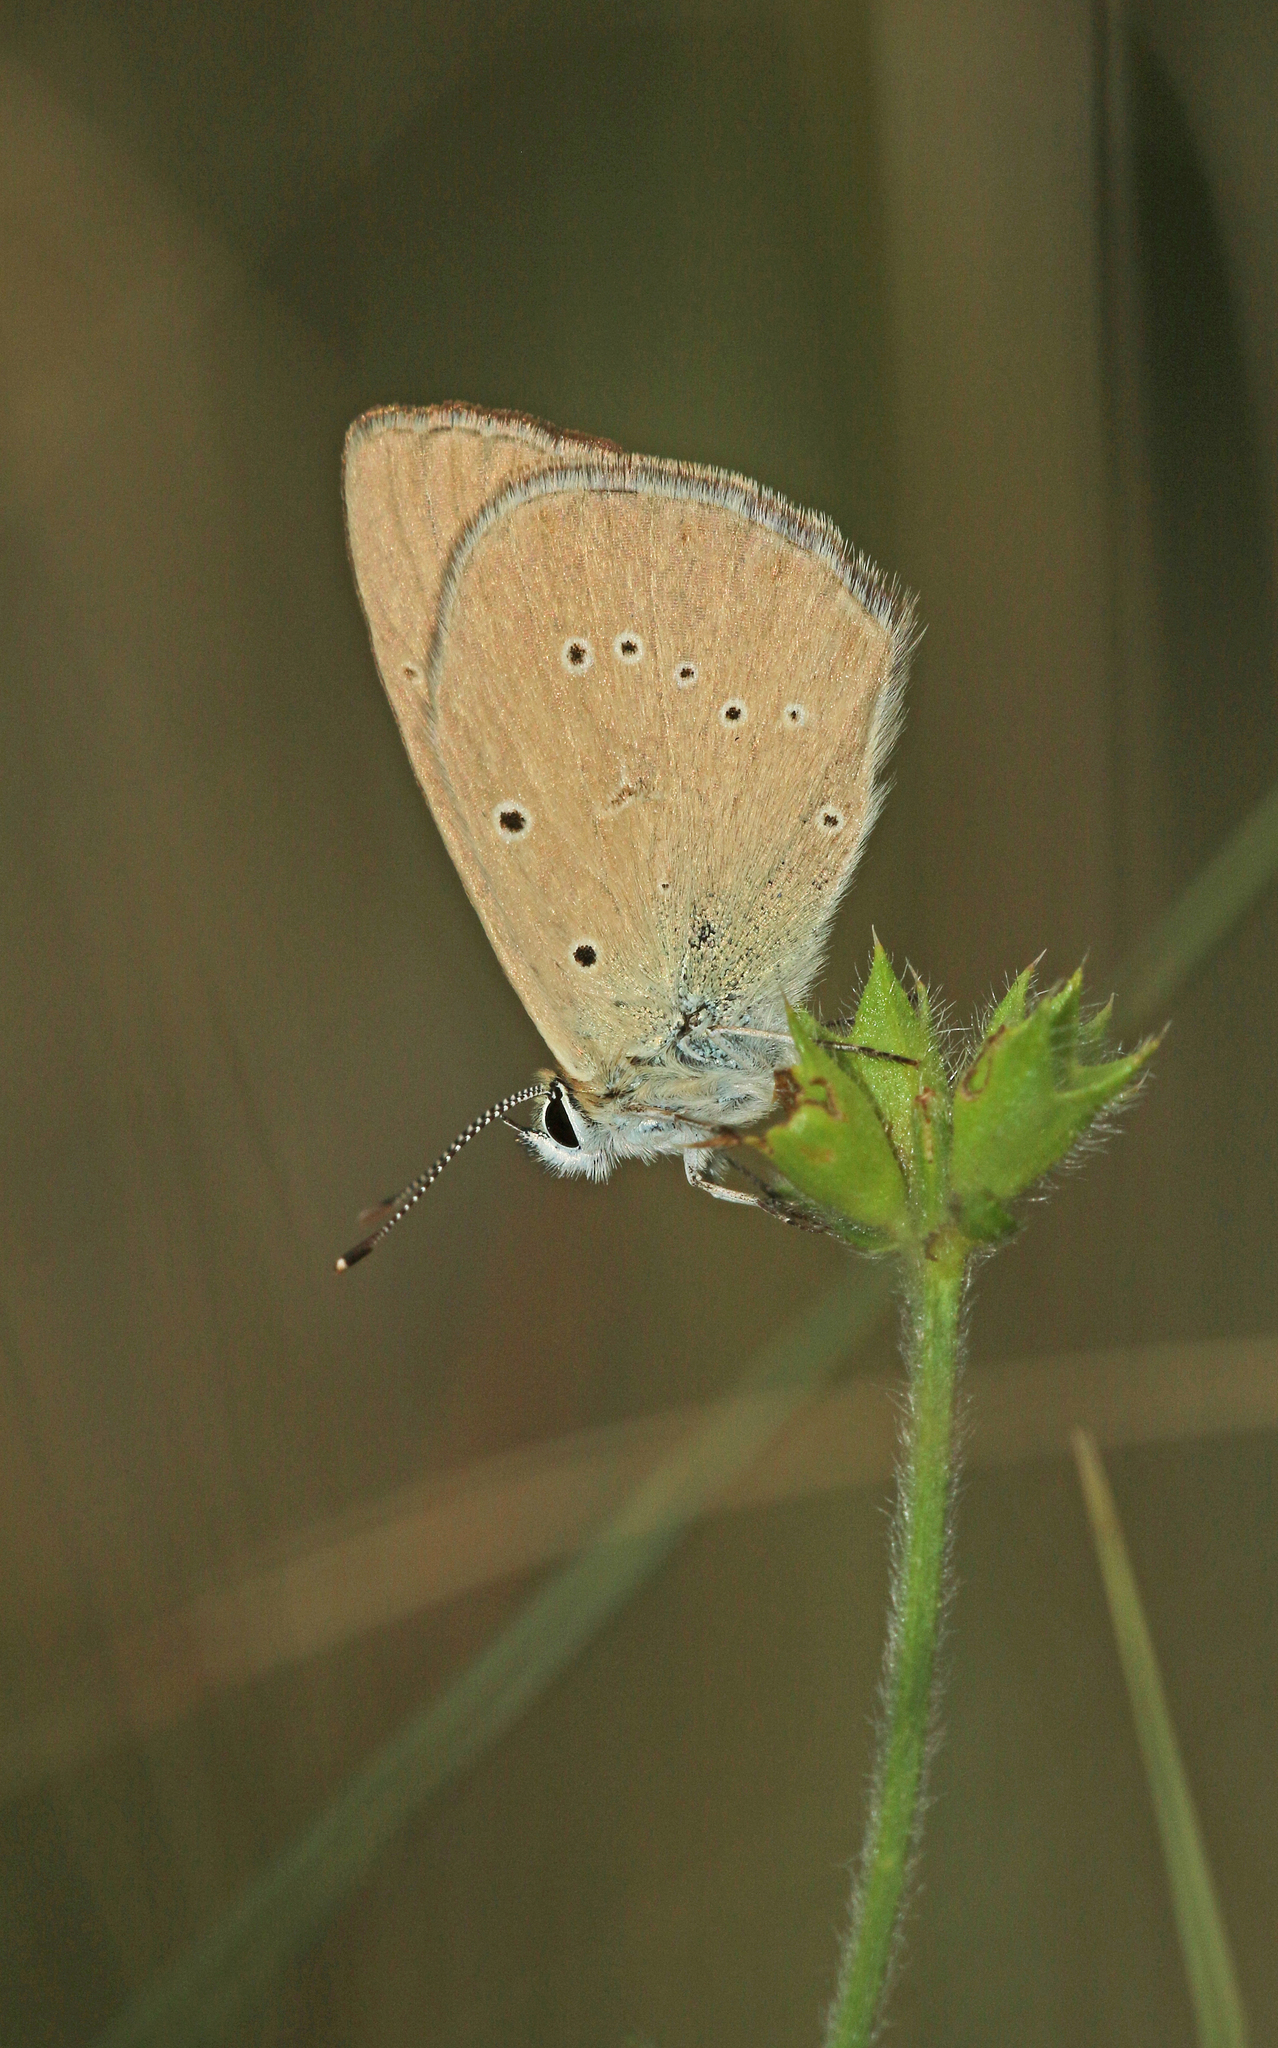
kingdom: Animalia
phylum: Arthropoda
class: Insecta
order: Lepidoptera
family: Lycaenidae
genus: Agrodiaetus
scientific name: Agrodiaetus humedasae
